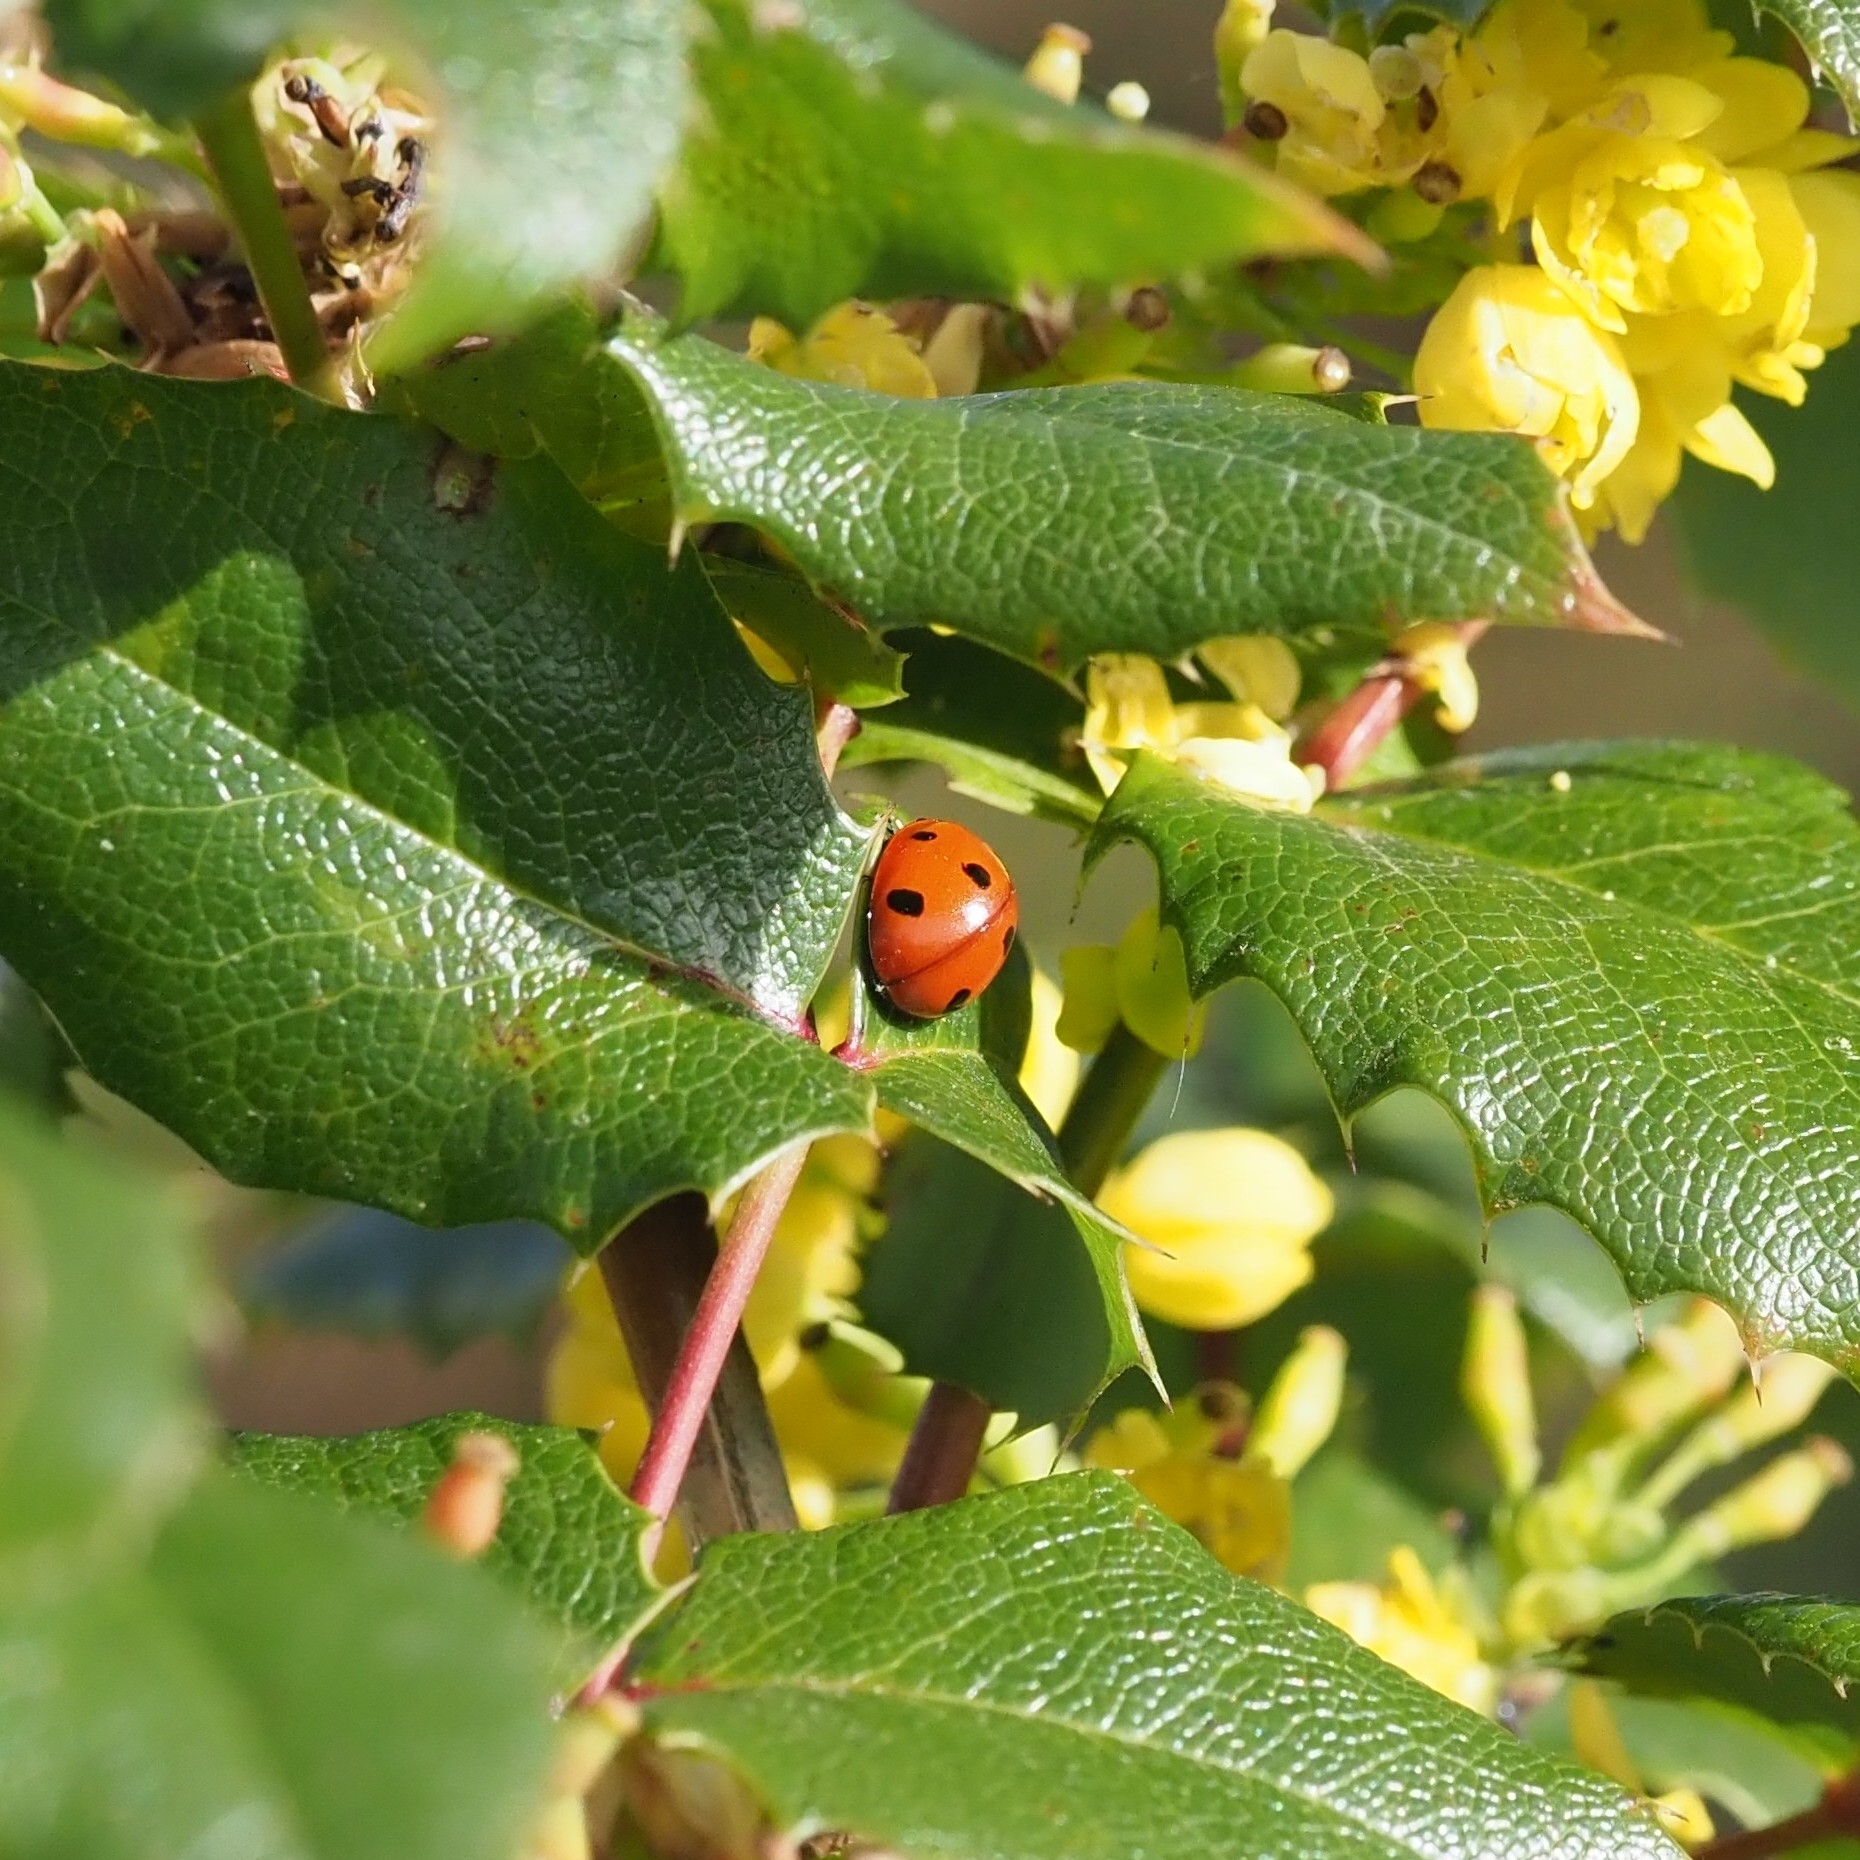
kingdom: Animalia
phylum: Arthropoda
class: Insecta
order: Coleoptera
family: Coccinellidae
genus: Coccinella
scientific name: Coccinella septempunctata
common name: Sevenspotted lady beetle
